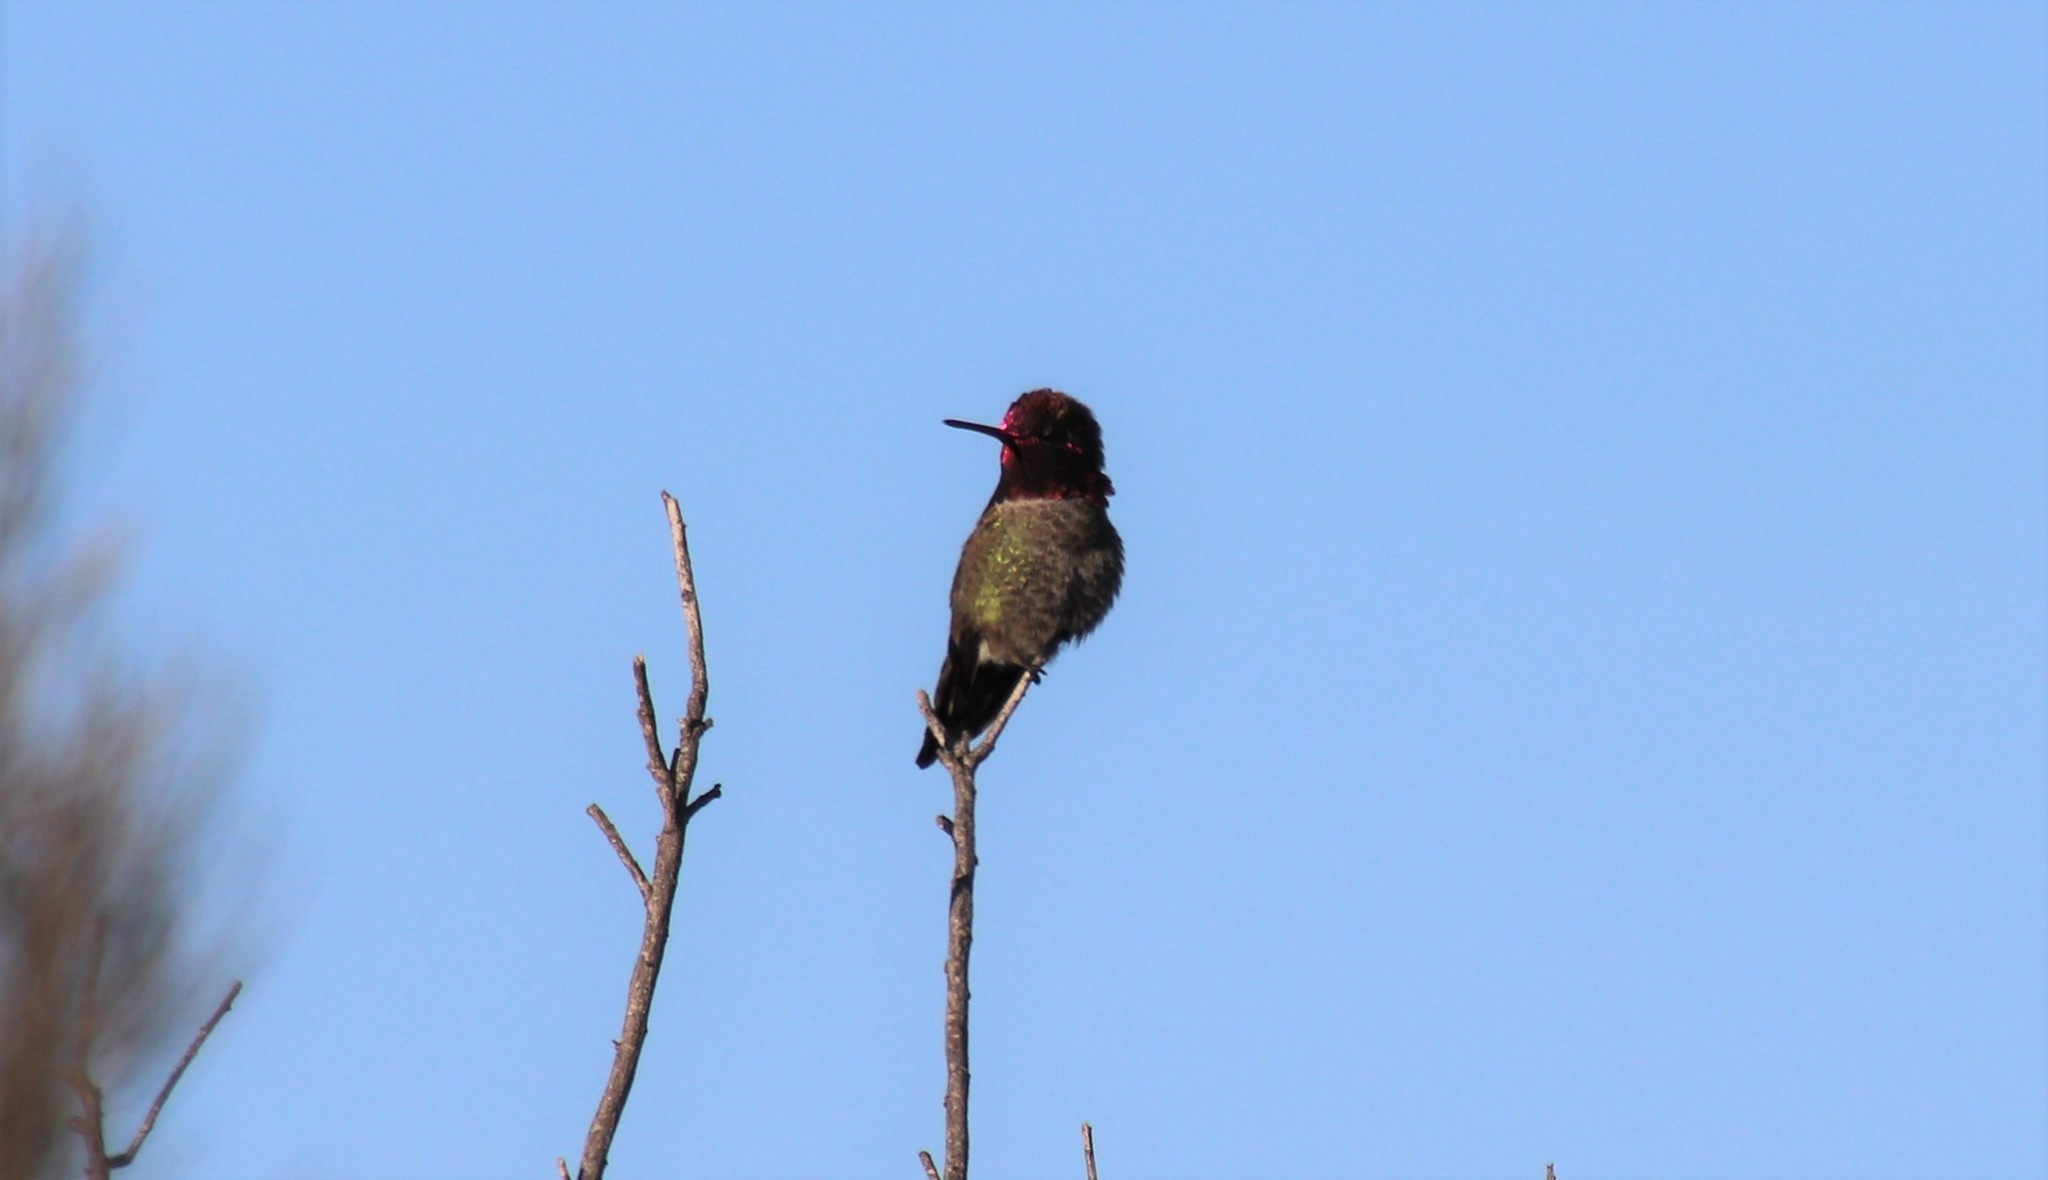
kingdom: Animalia
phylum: Chordata
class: Aves
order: Apodiformes
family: Trochilidae
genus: Calypte
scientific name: Calypte anna
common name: Anna's hummingbird
